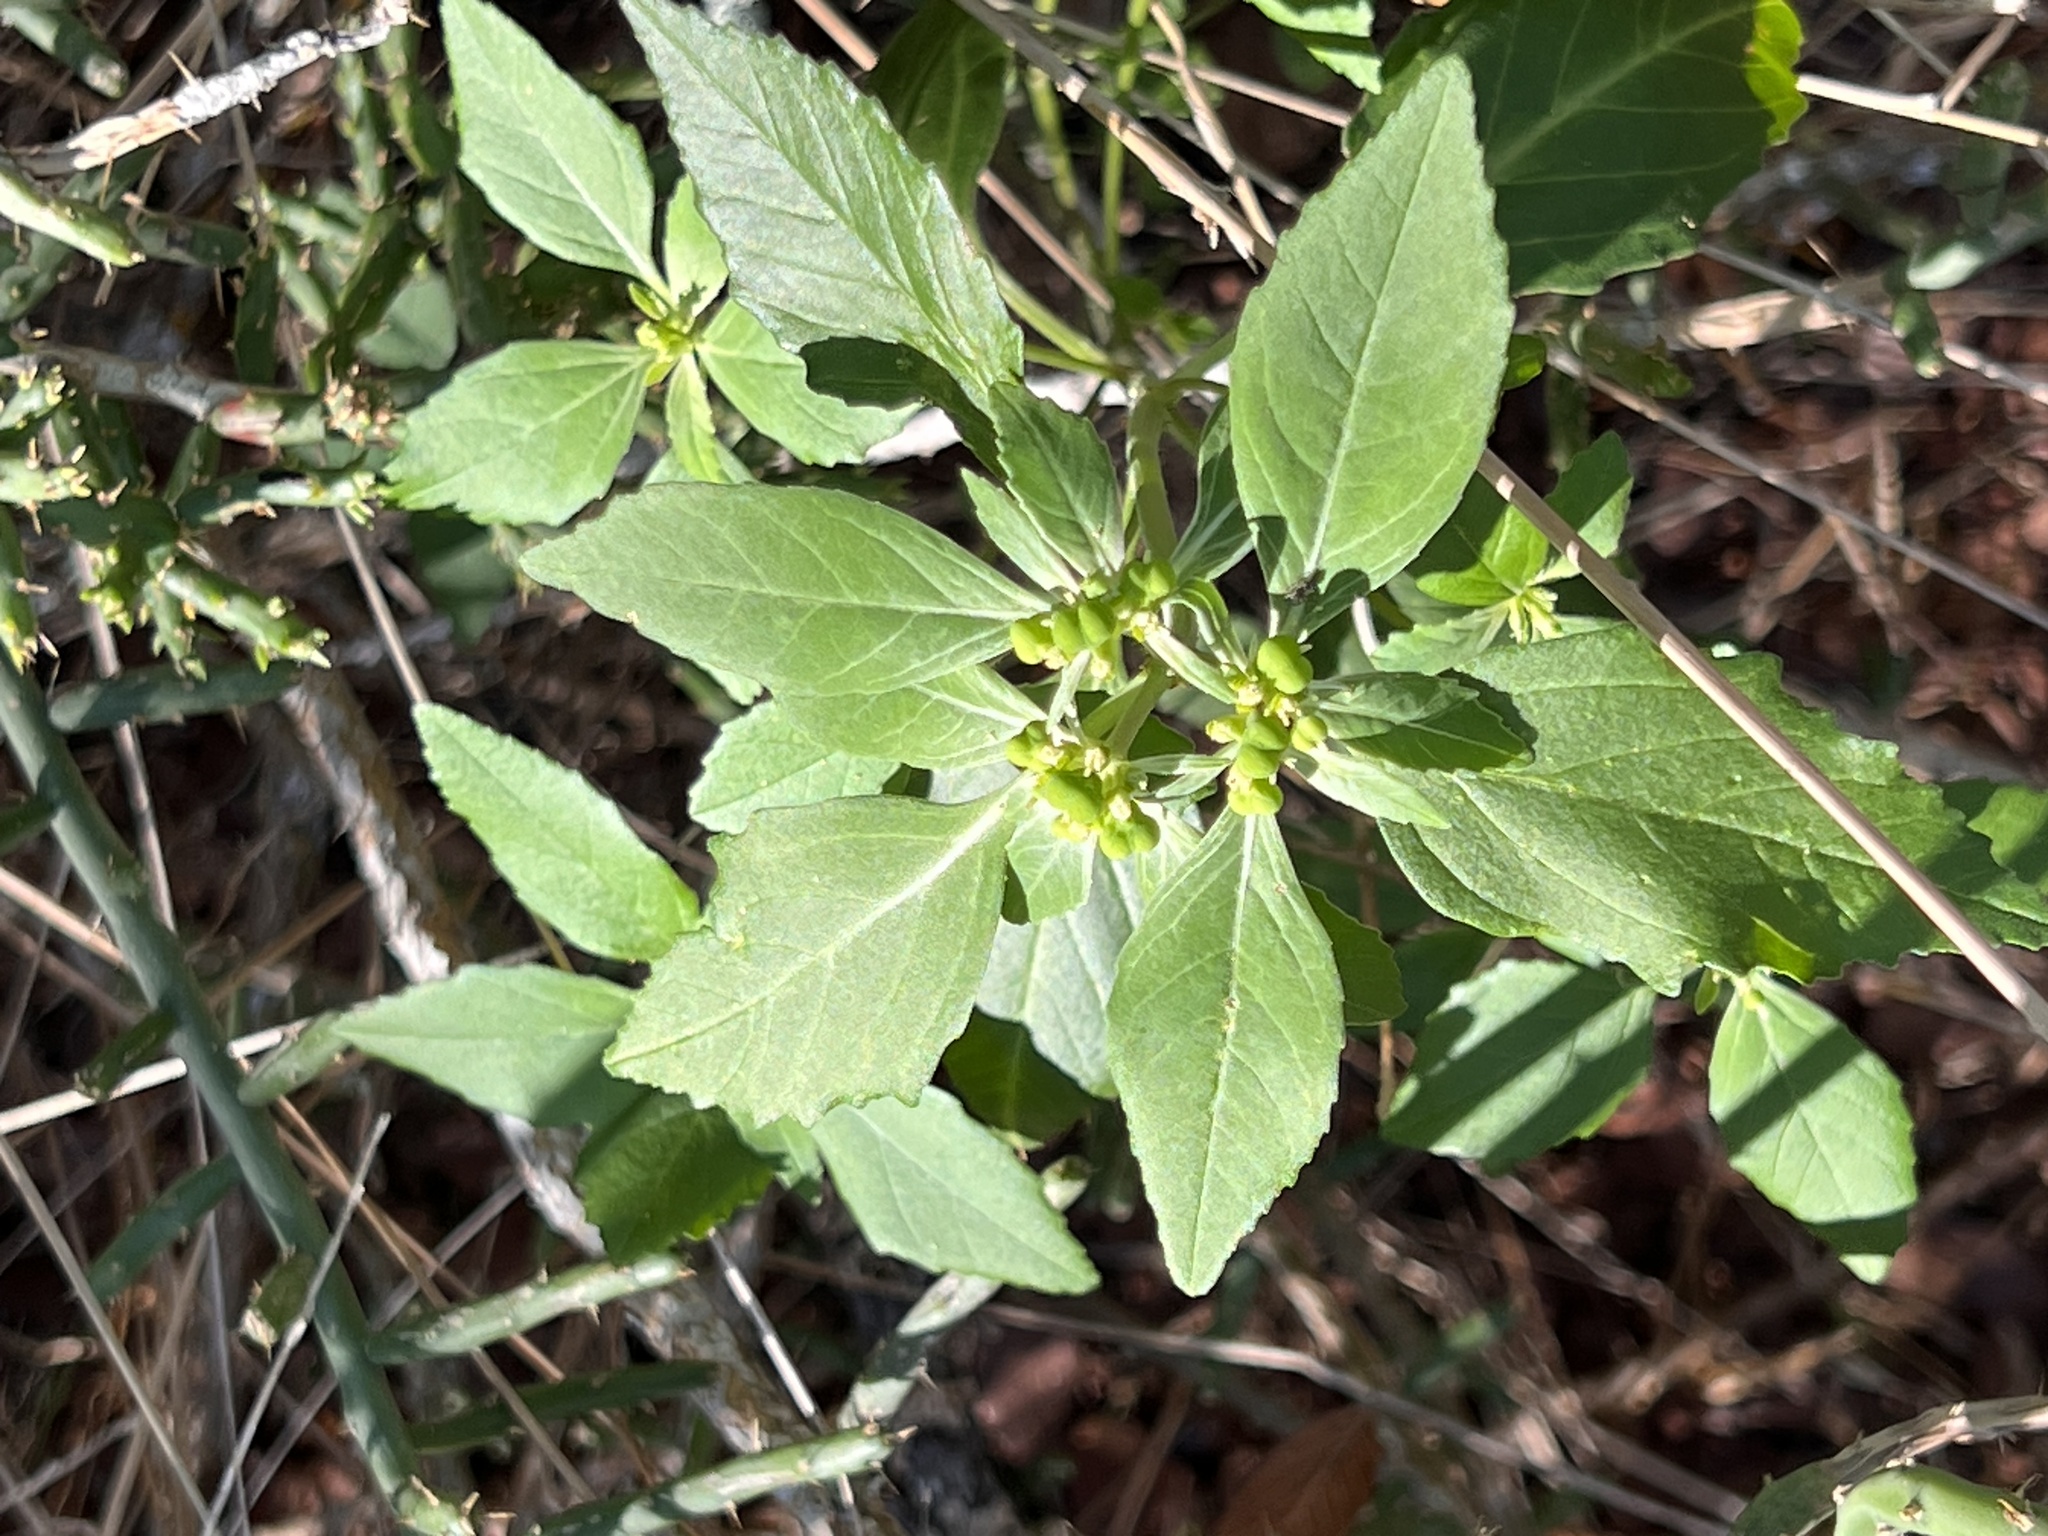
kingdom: Plantae
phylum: Tracheophyta
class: Magnoliopsida
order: Malpighiales
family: Euphorbiaceae
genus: Euphorbia
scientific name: Euphorbia dentata
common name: Dentate spurge
